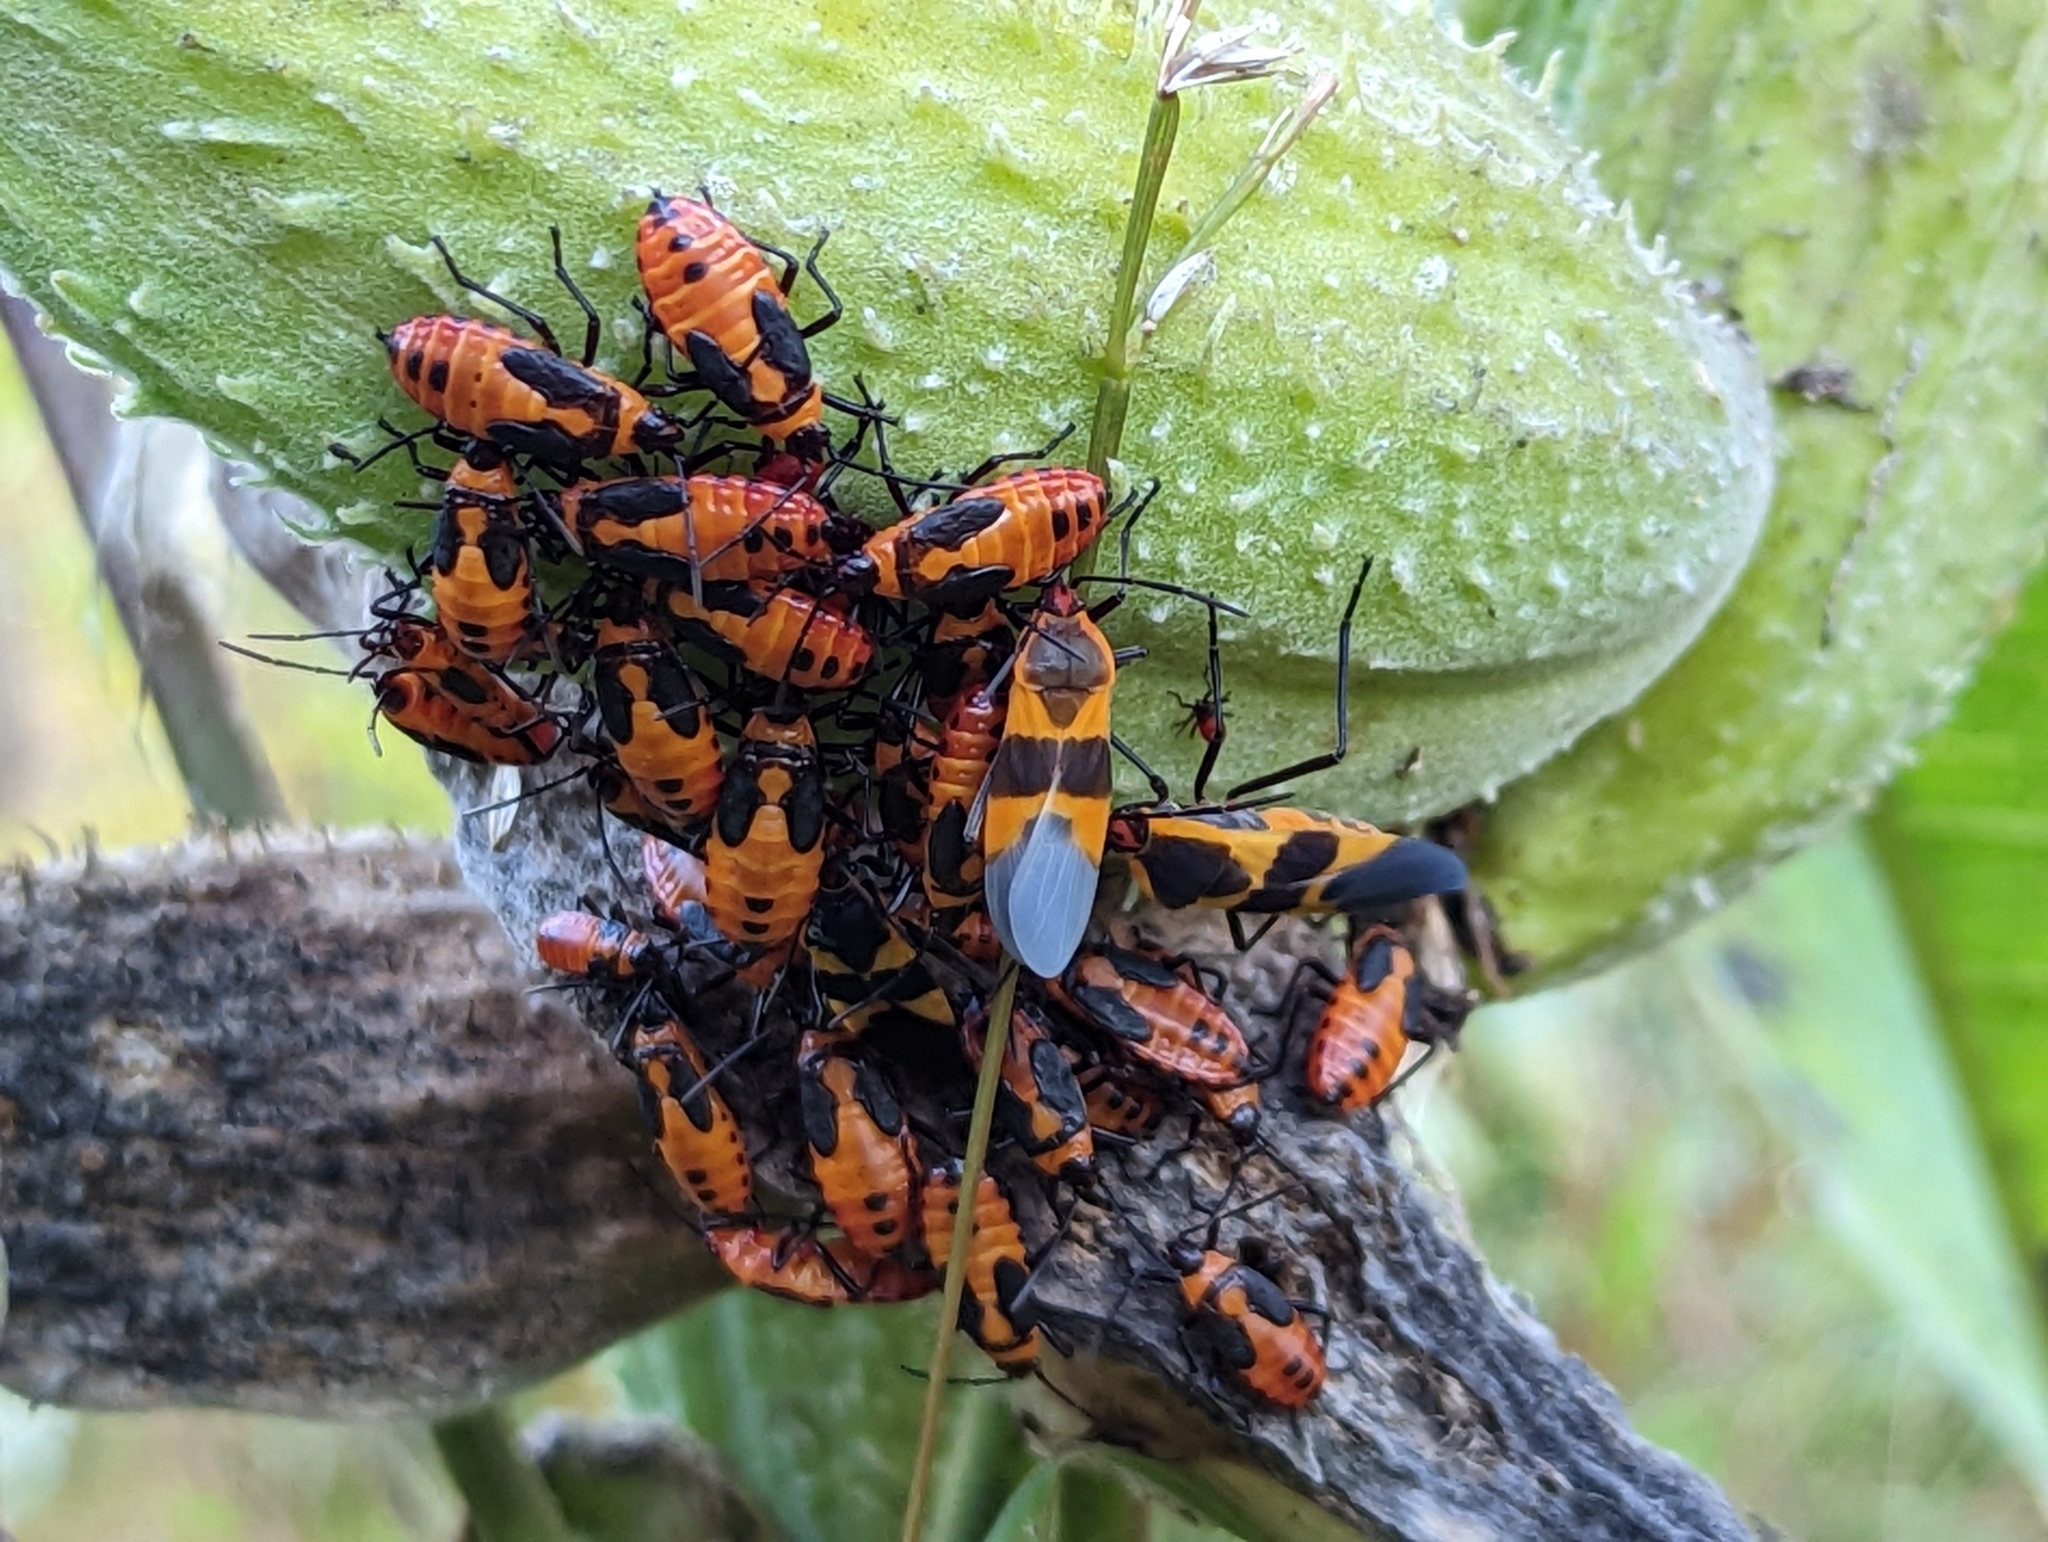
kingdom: Animalia
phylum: Arthropoda
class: Insecta
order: Hemiptera
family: Lygaeidae
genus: Oncopeltus
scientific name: Oncopeltus fasciatus
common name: Large milkweed bug
